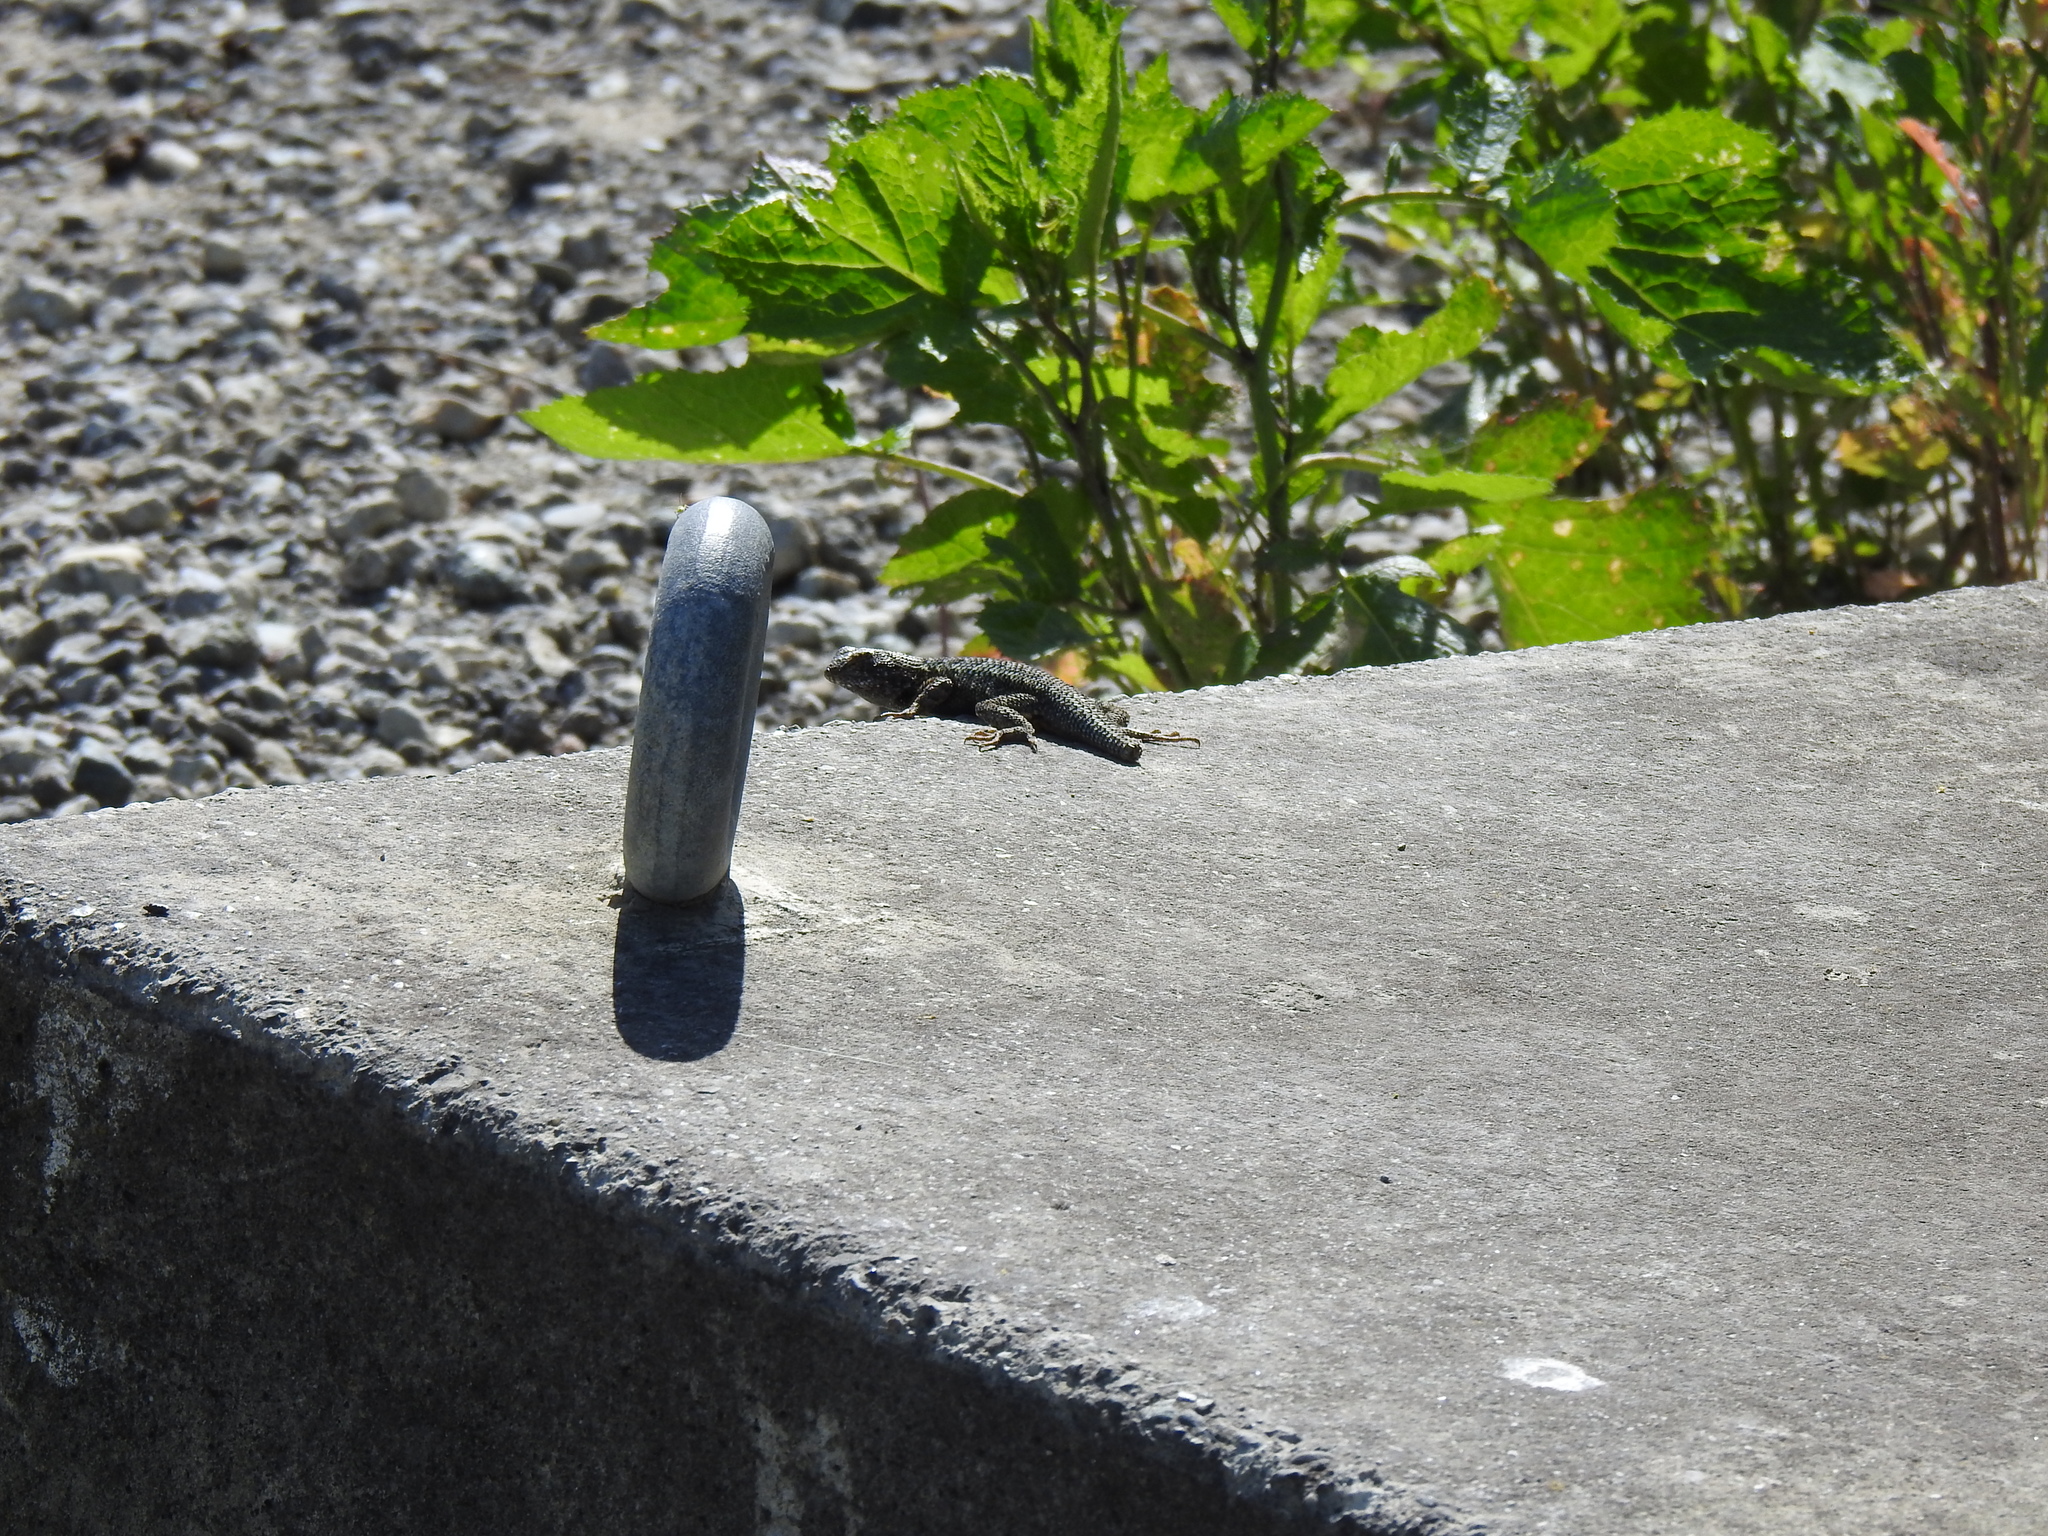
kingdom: Animalia
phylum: Chordata
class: Squamata
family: Phrynosomatidae
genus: Sceloporus
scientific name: Sceloporus occidentalis
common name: Western fence lizard
